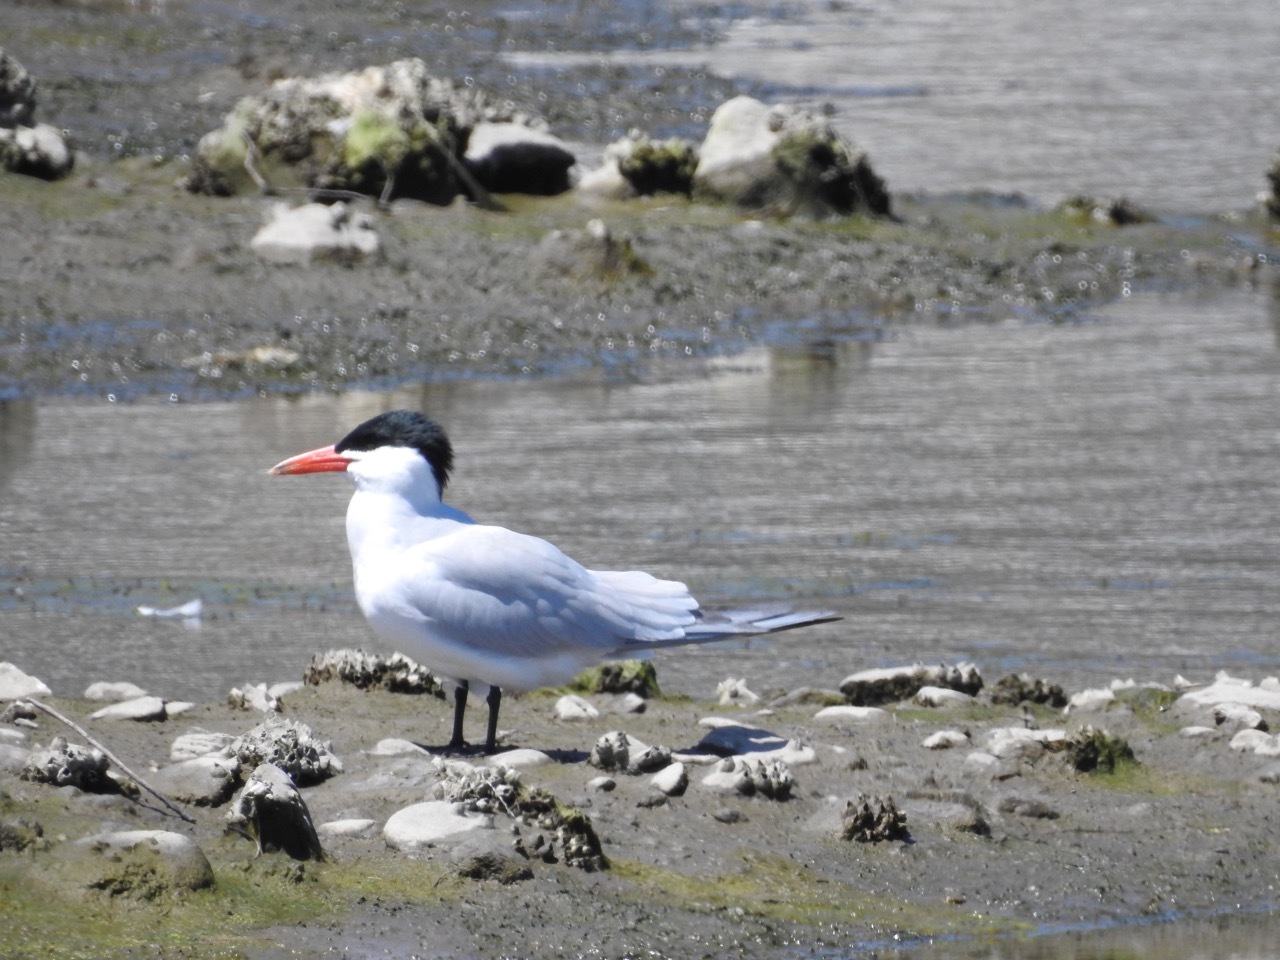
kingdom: Animalia
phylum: Chordata
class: Aves
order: Charadriiformes
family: Laridae
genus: Hydroprogne
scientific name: Hydroprogne caspia
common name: Caspian tern
